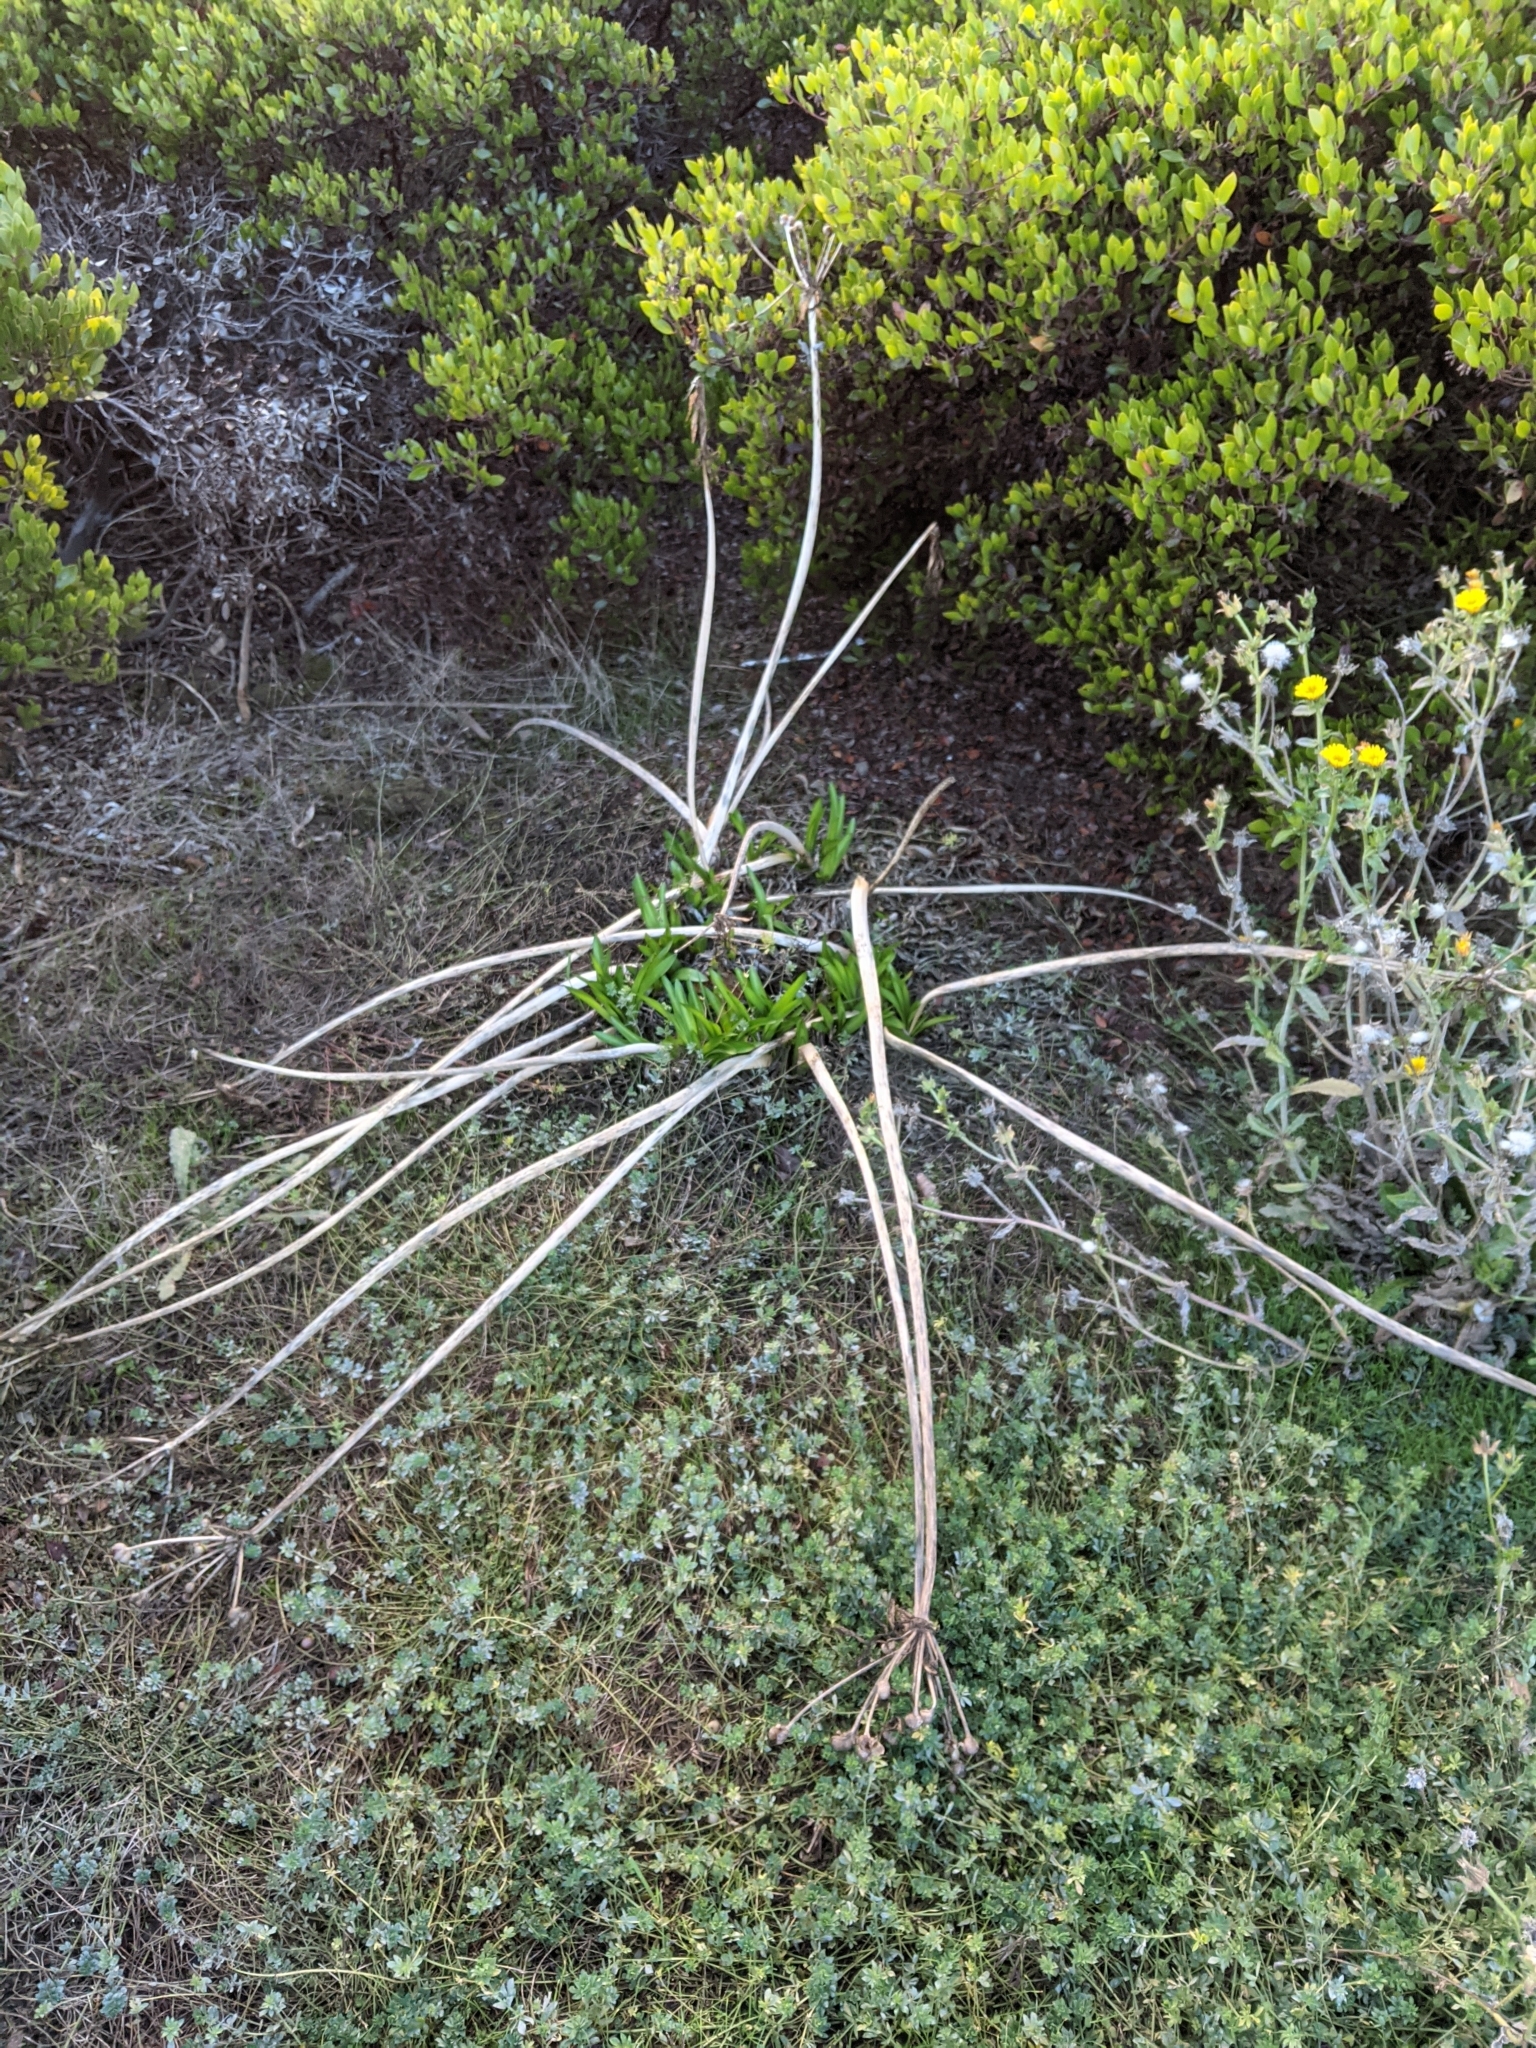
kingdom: Plantae
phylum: Tracheophyta
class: Liliopsida
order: Asparagales
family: Amaryllidaceae
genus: Amaryllis
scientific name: Amaryllis belladonna
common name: Jersey lily
